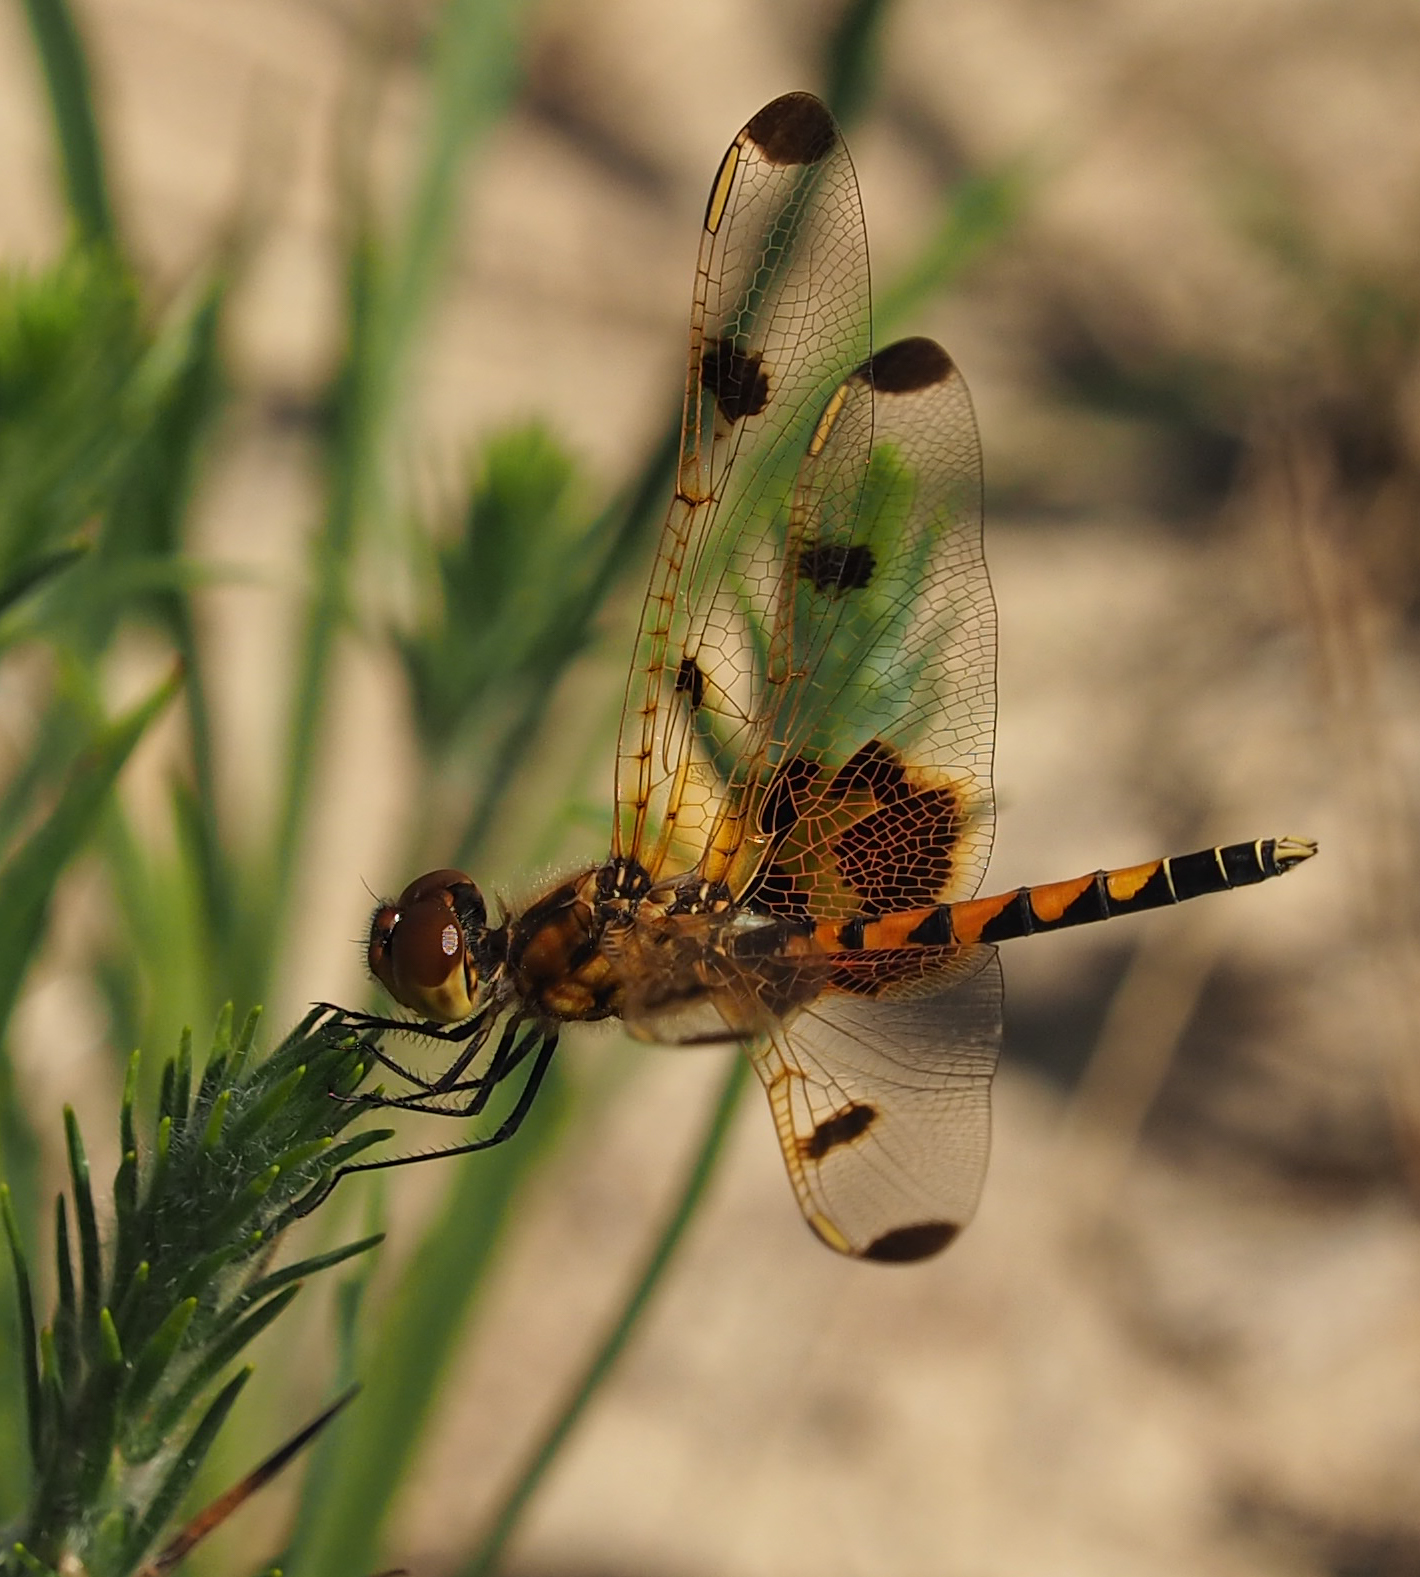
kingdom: Animalia
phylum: Arthropoda
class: Insecta
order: Odonata
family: Libellulidae
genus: Celithemis
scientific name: Celithemis elisa
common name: Calico pennant
